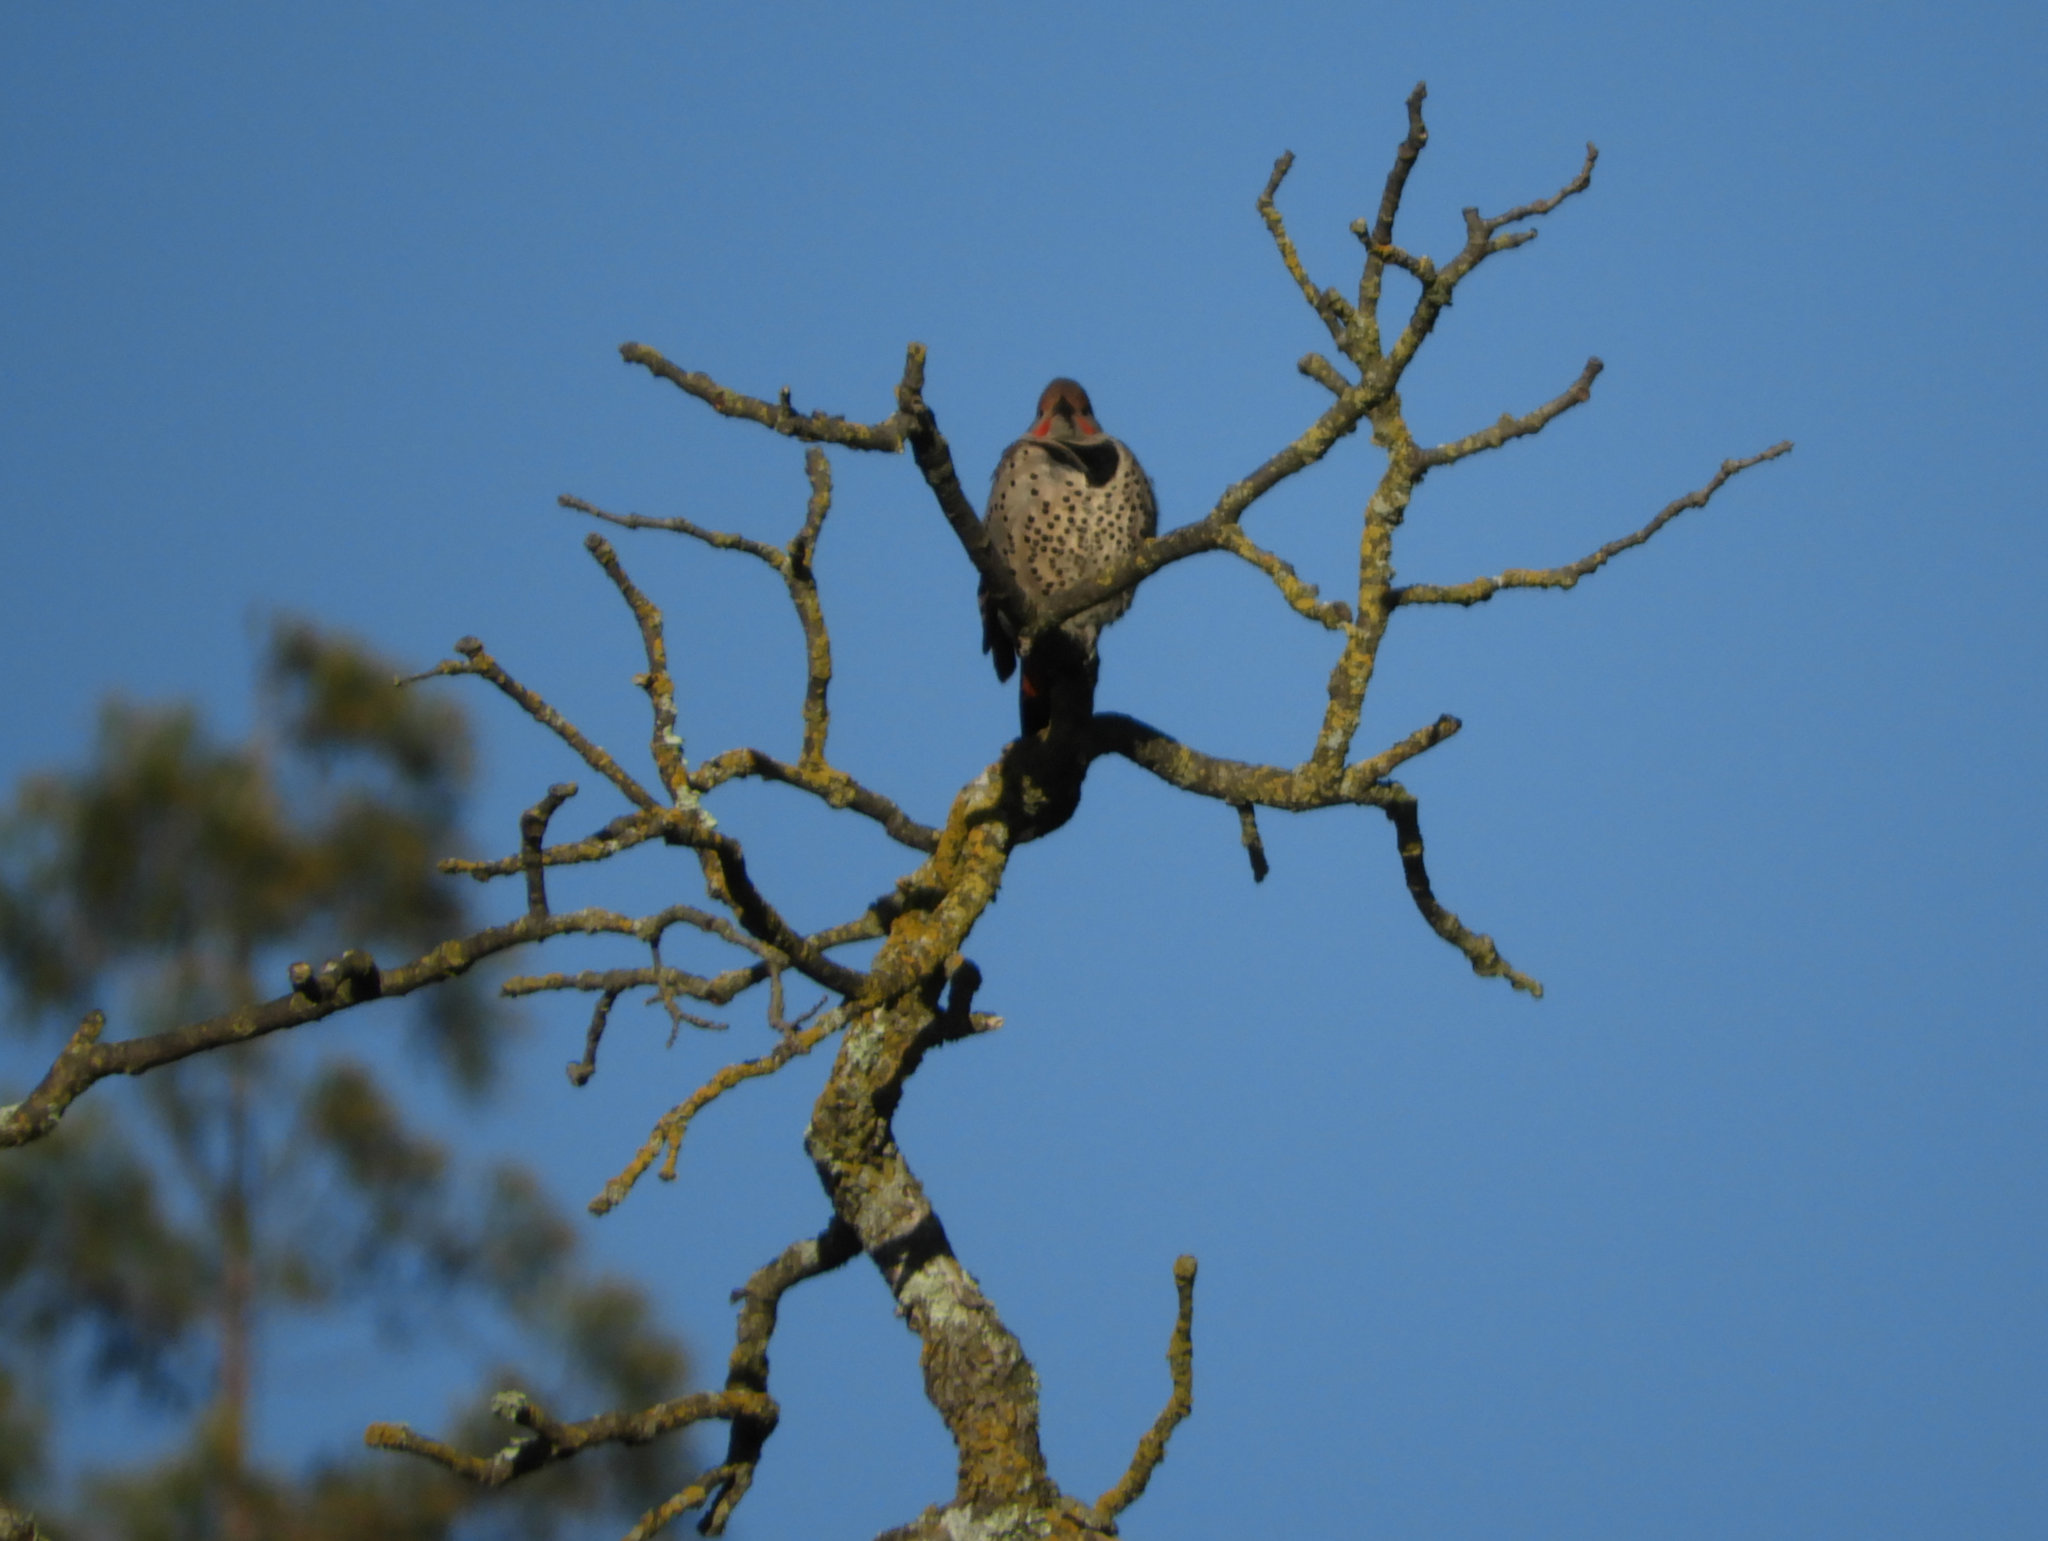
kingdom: Animalia
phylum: Chordata
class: Aves
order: Accipitriformes
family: Accipitridae
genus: Buteo
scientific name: Buteo jamaicensis
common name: Red-tailed hawk
